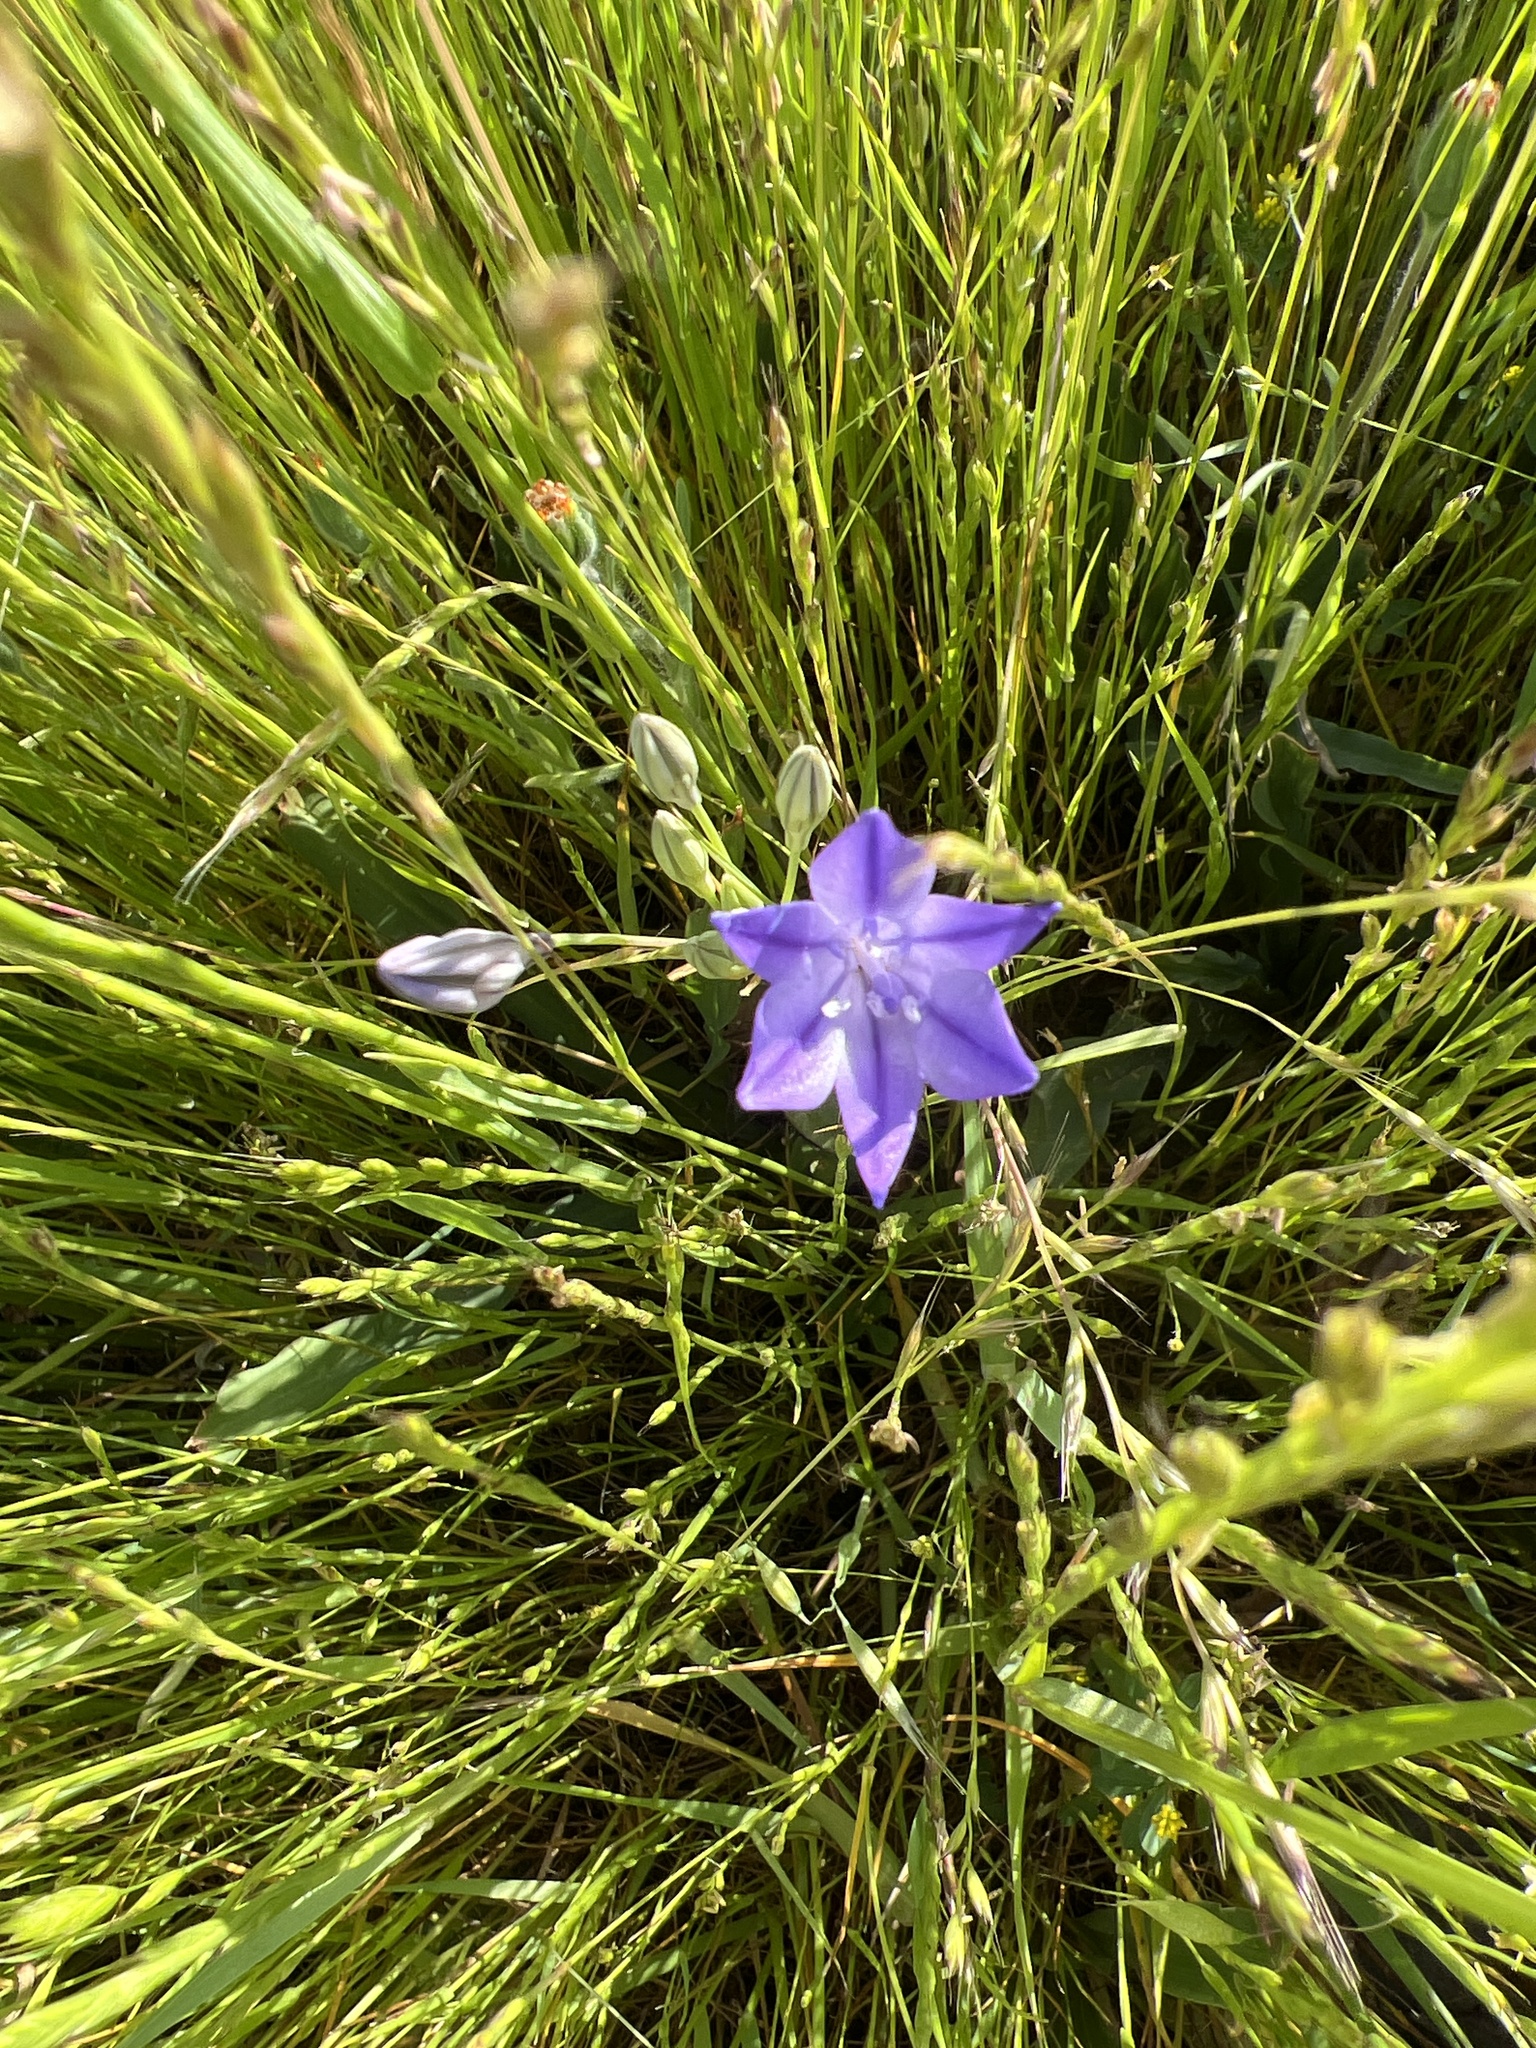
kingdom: Plantae
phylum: Tracheophyta
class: Liliopsida
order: Asparagales
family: Asparagaceae
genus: Triteleia
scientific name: Triteleia laxa
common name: Triplet-lily
